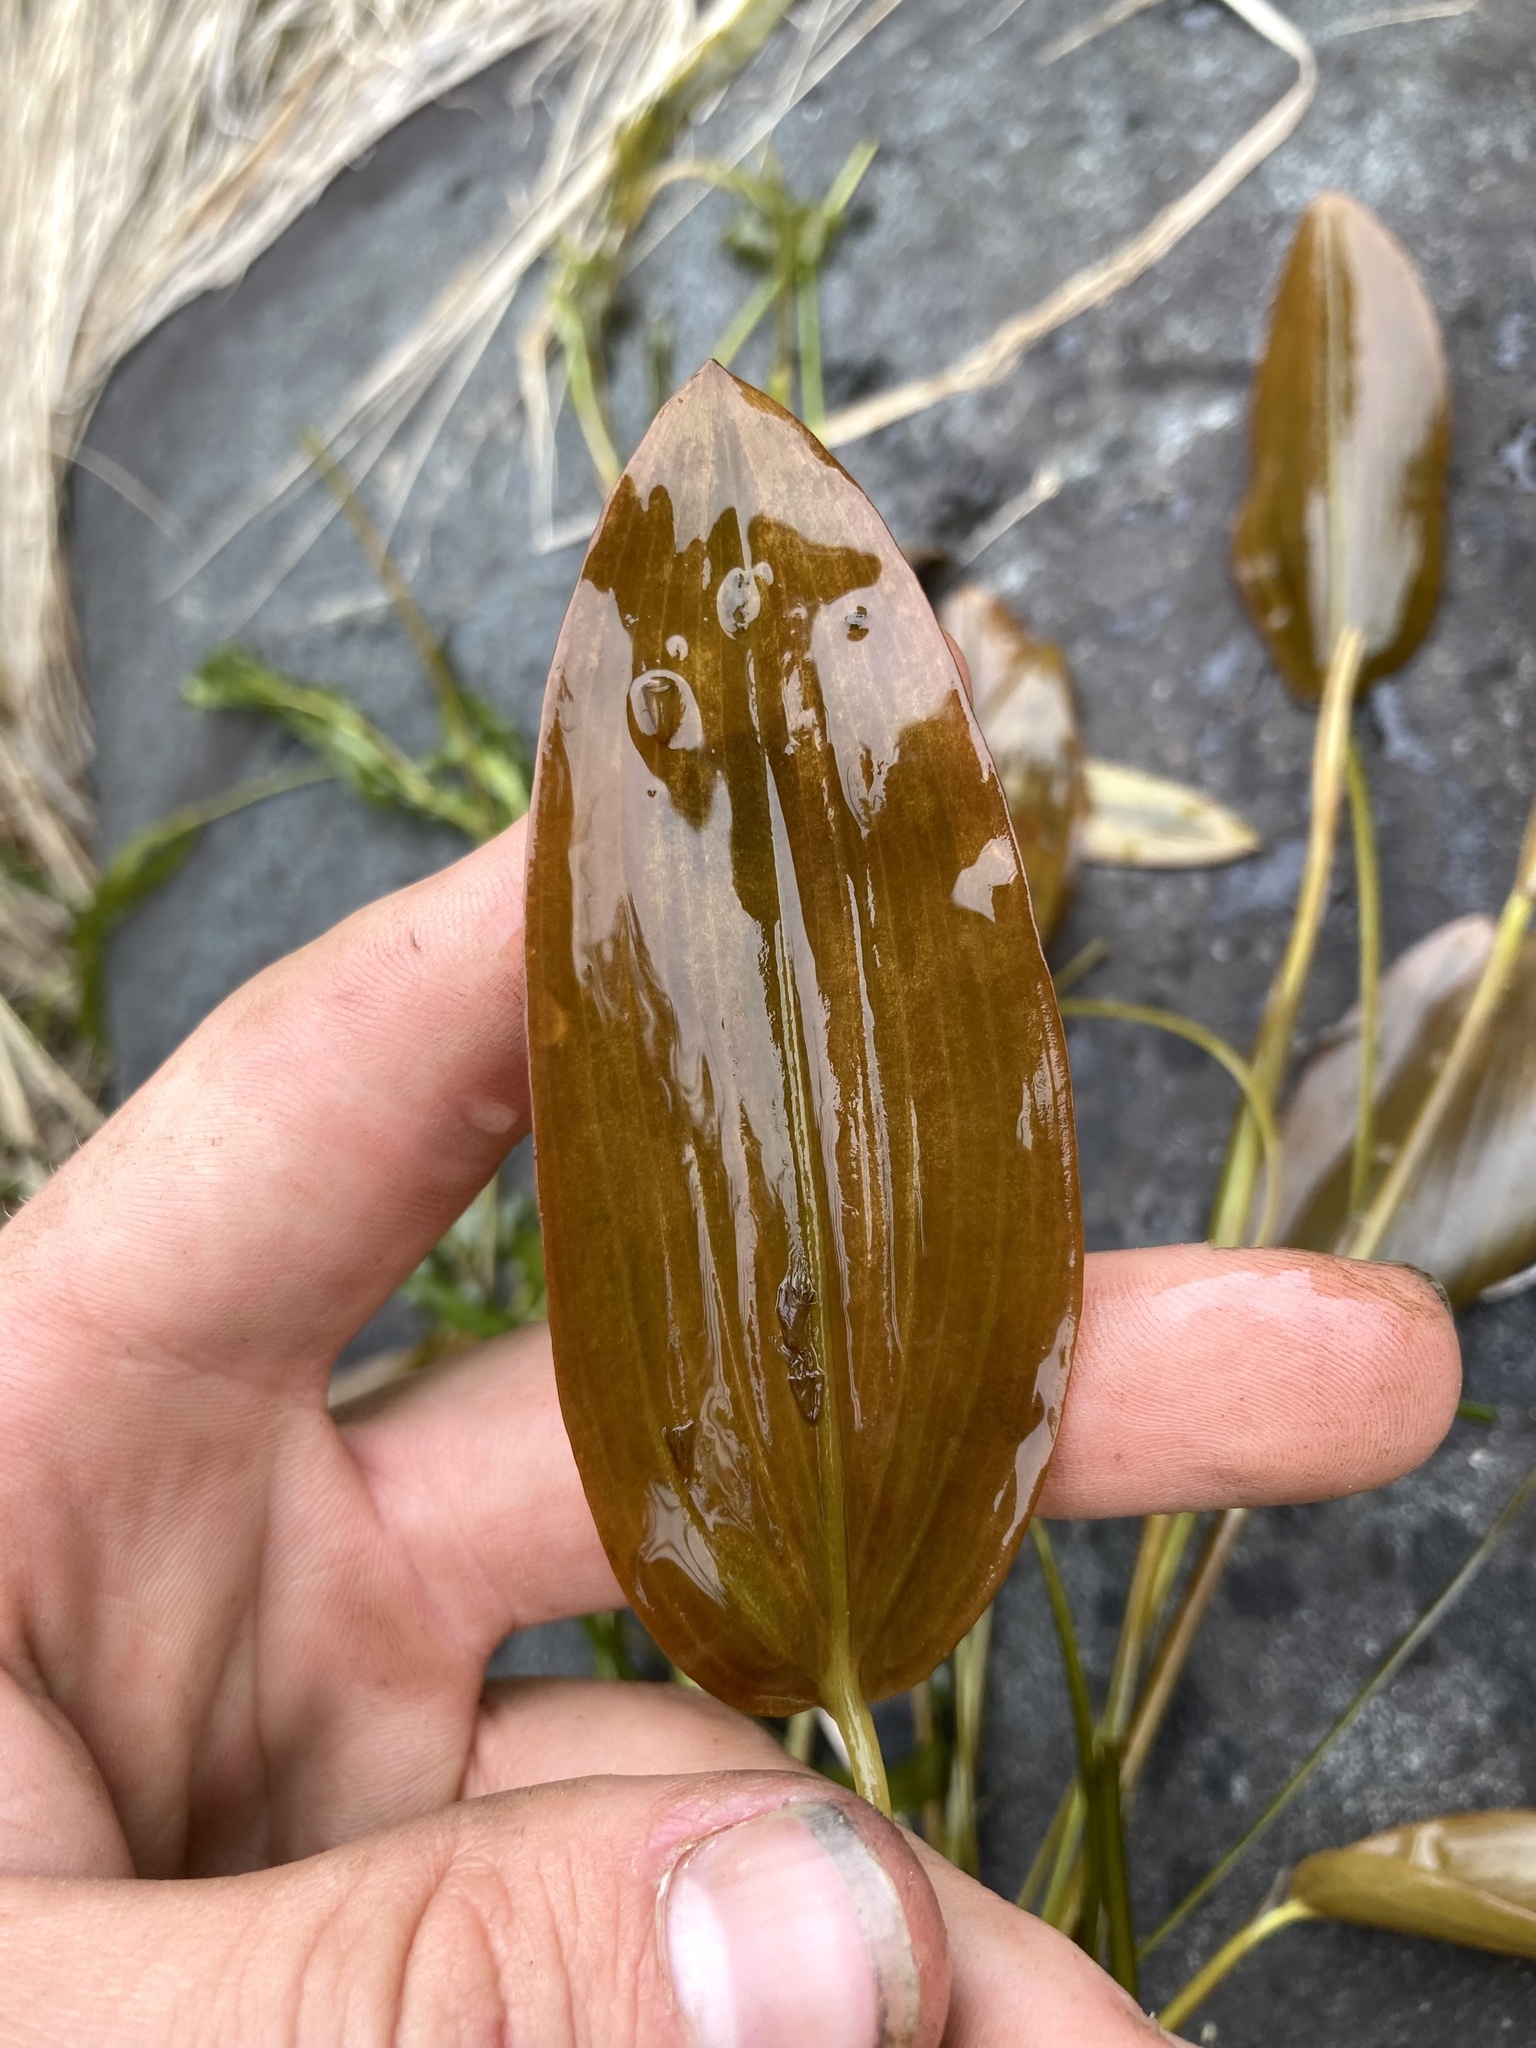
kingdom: Plantae
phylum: Tracheophyta
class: Liliopsida
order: Alismatales
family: Potamogetonaceae
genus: Potamogeton
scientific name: Potamogeton natans
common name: Broad-leaved pondweed
